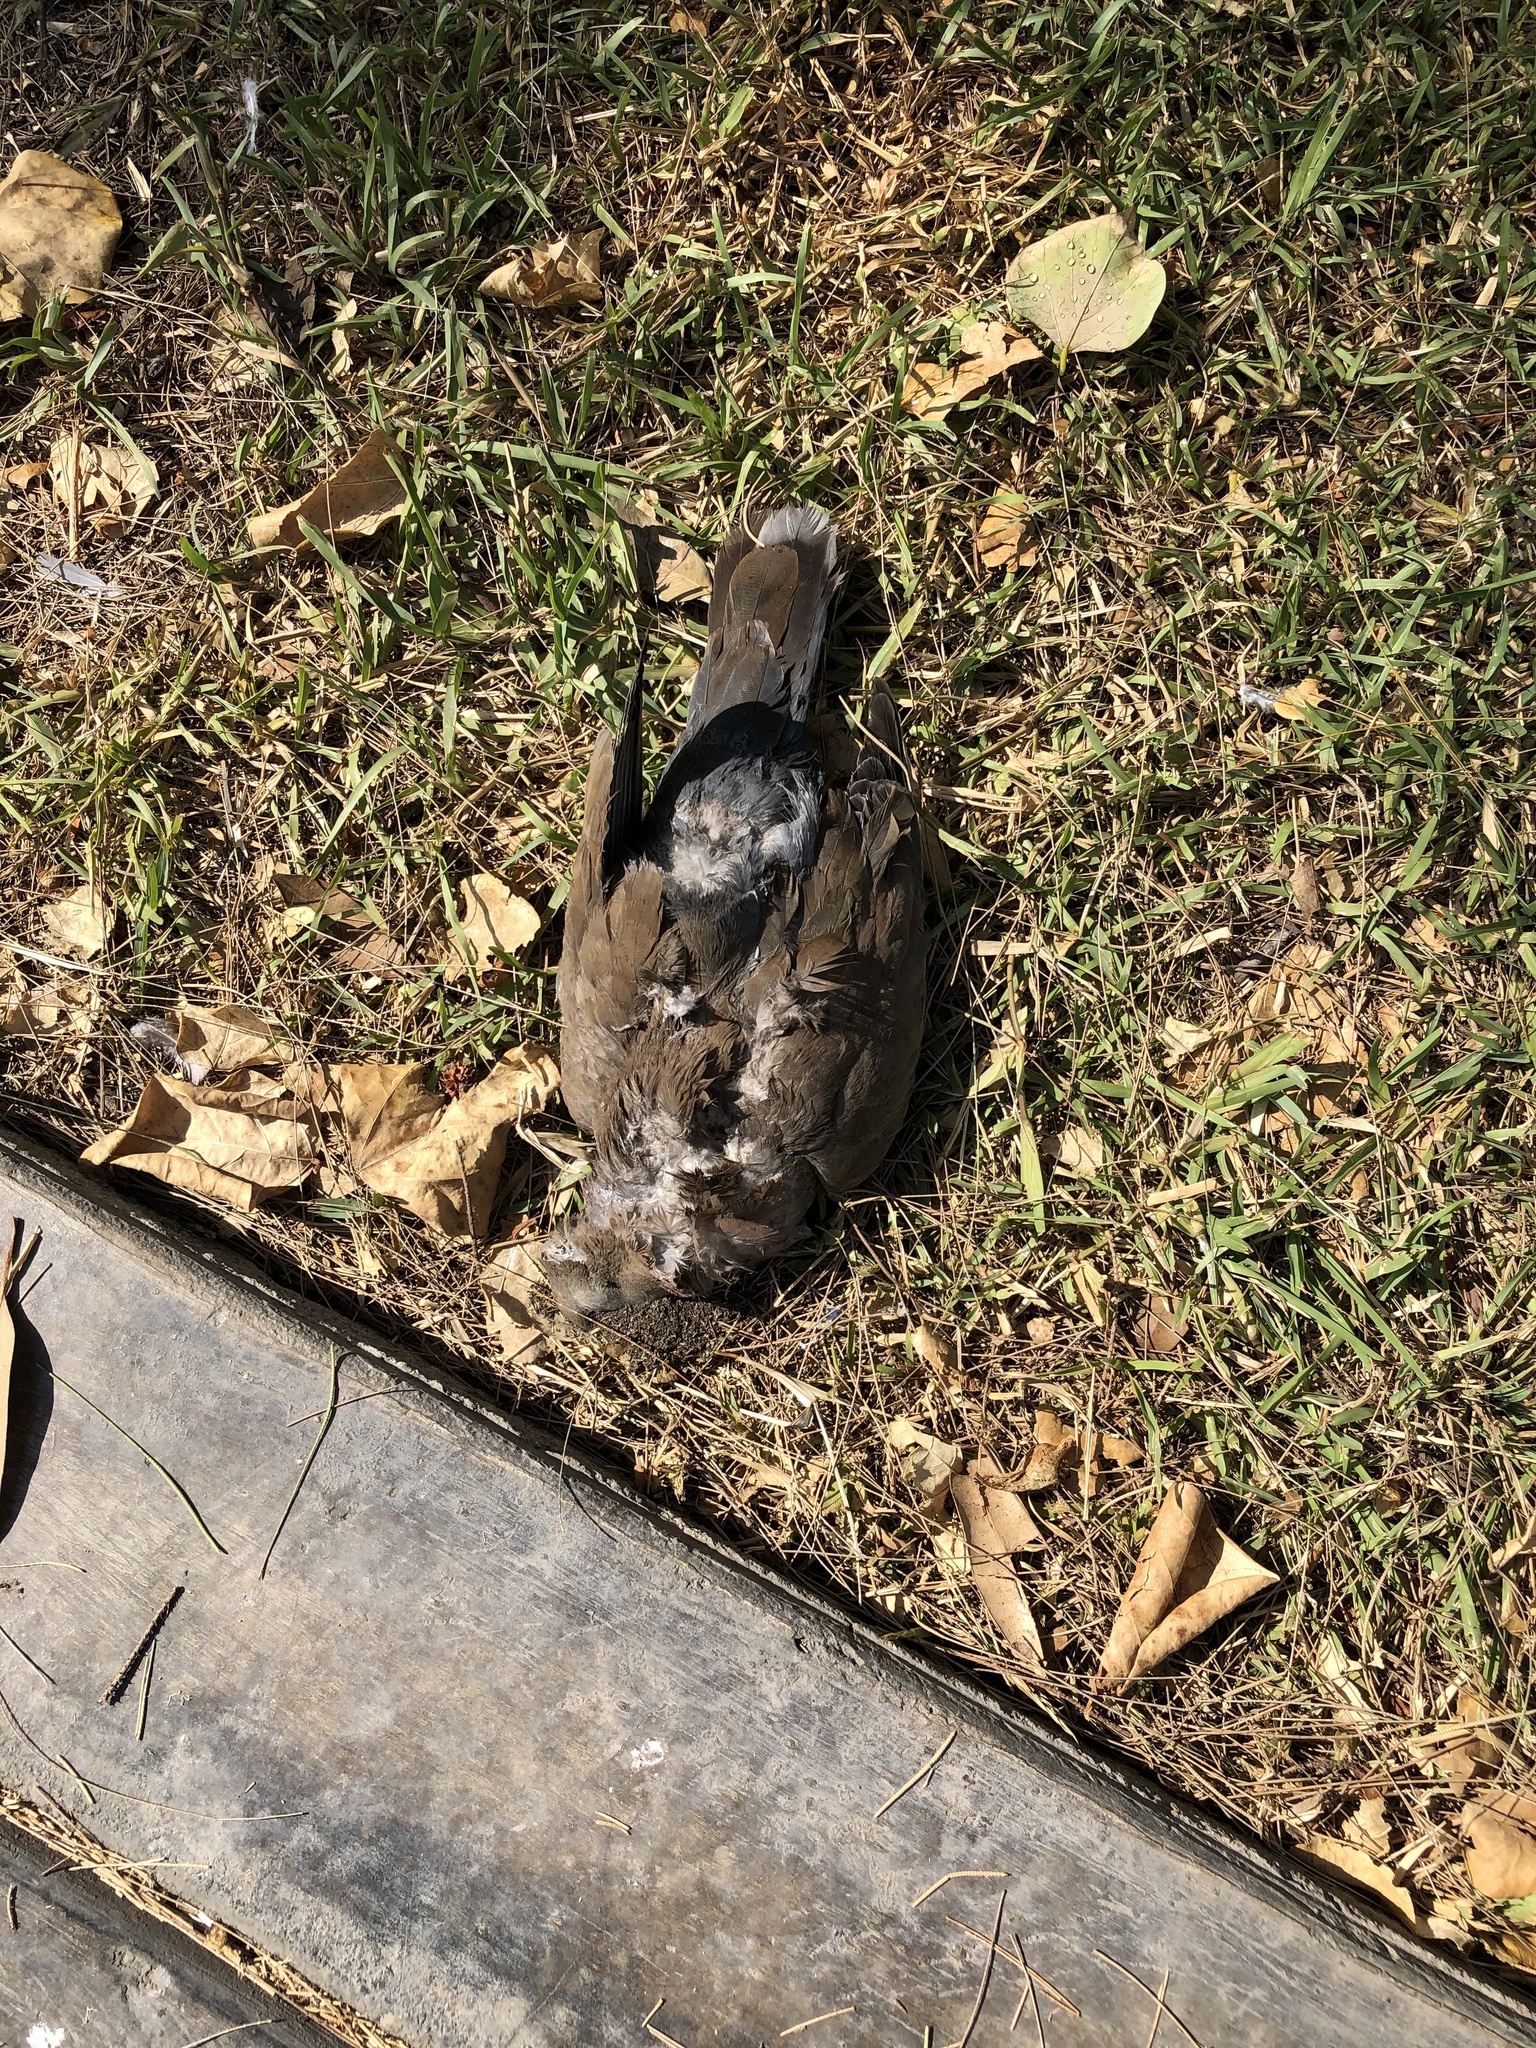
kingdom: Animalia
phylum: Chordata
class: Aves
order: Columbiformes
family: Columbidae
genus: Zenaida
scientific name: Zenaida meloda
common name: West peruvian dove
